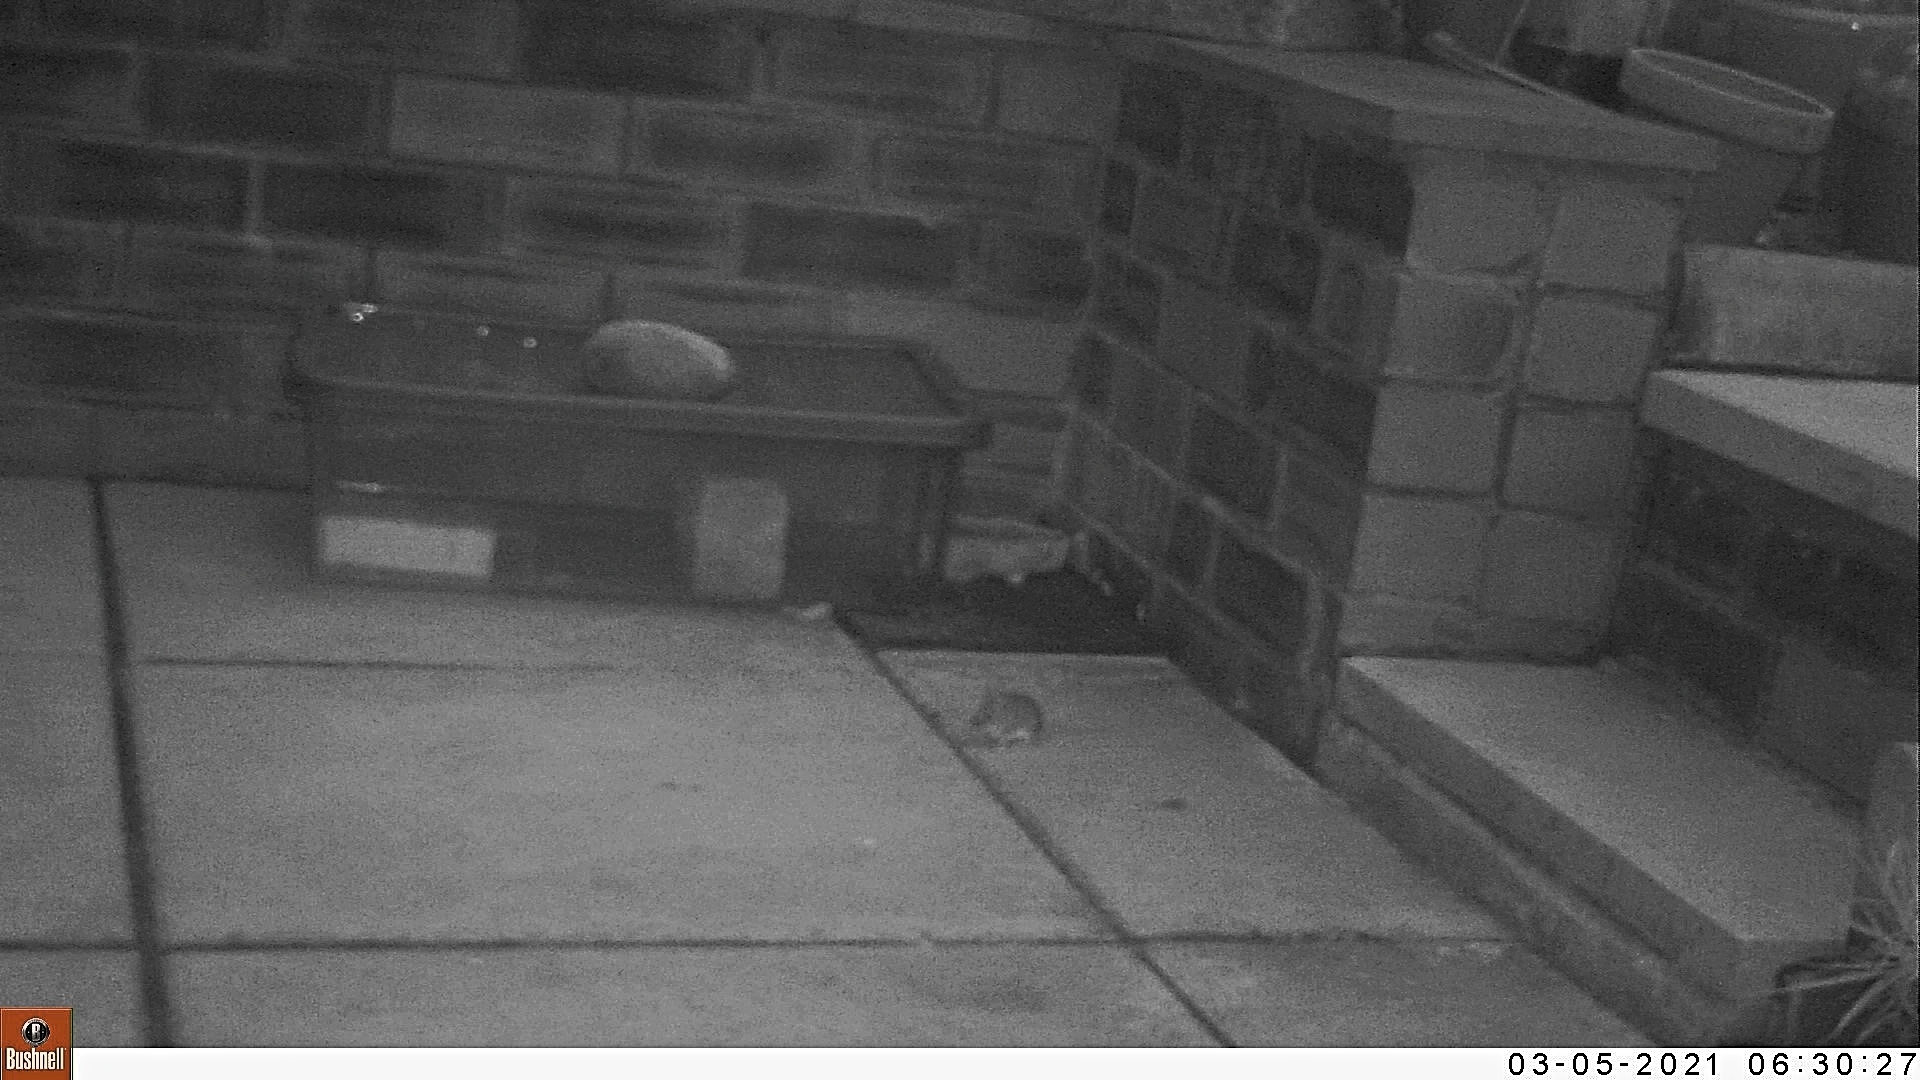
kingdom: Animalia
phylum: Chordata
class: Mammalia
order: Rodentia
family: Muridae
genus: Apodemus
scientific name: Apodemus sylvaticus
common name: Wood mouse
